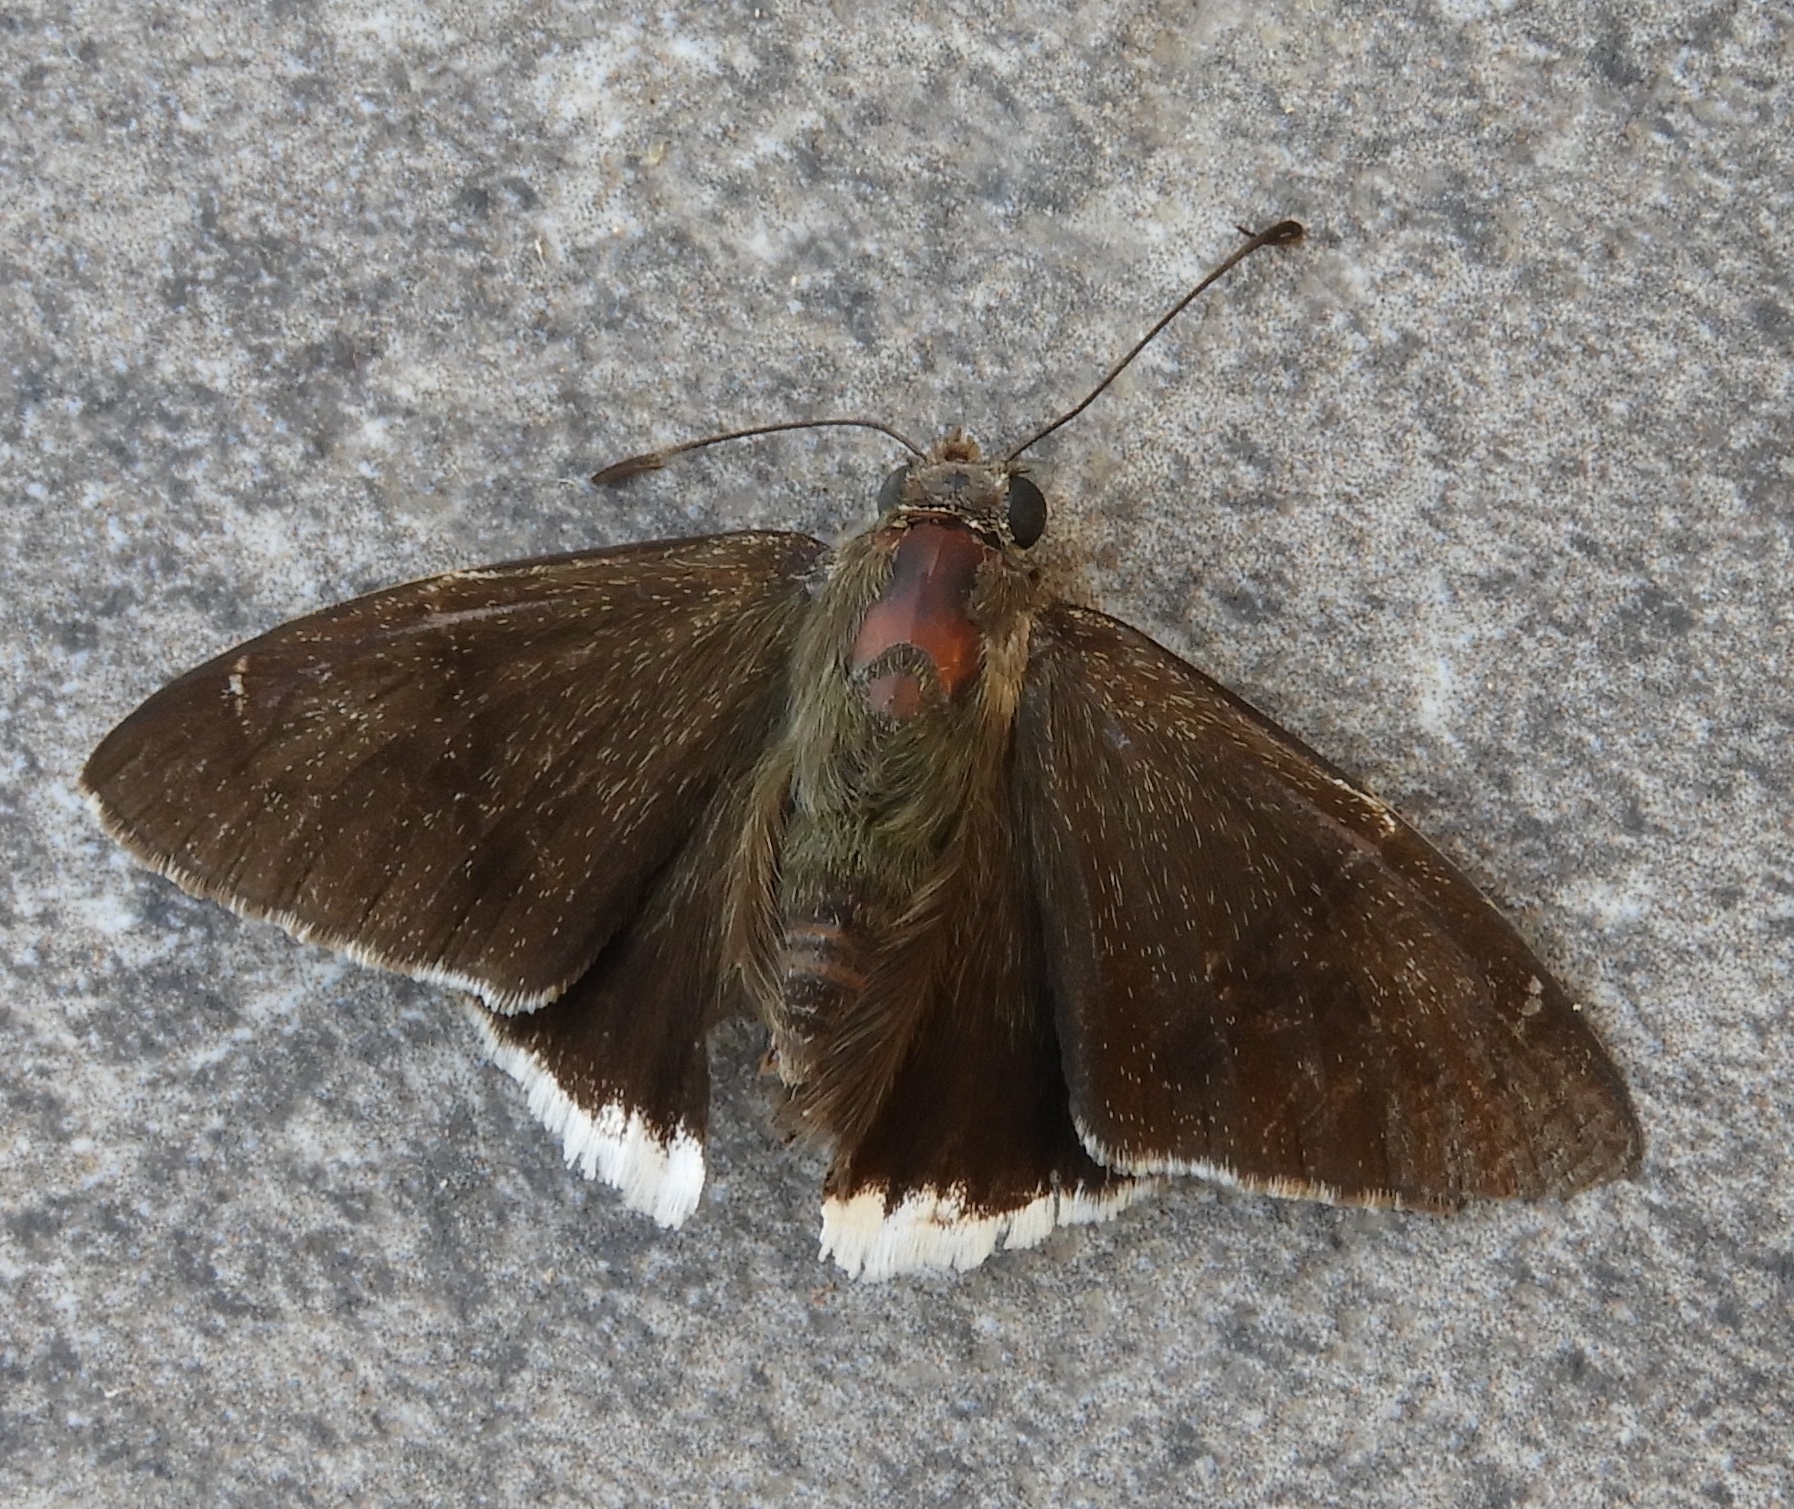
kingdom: Animalia
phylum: Arthropoda
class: Insecta
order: Lepidoptera
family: Hesperiidae
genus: Achalarus
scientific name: Achalarus
